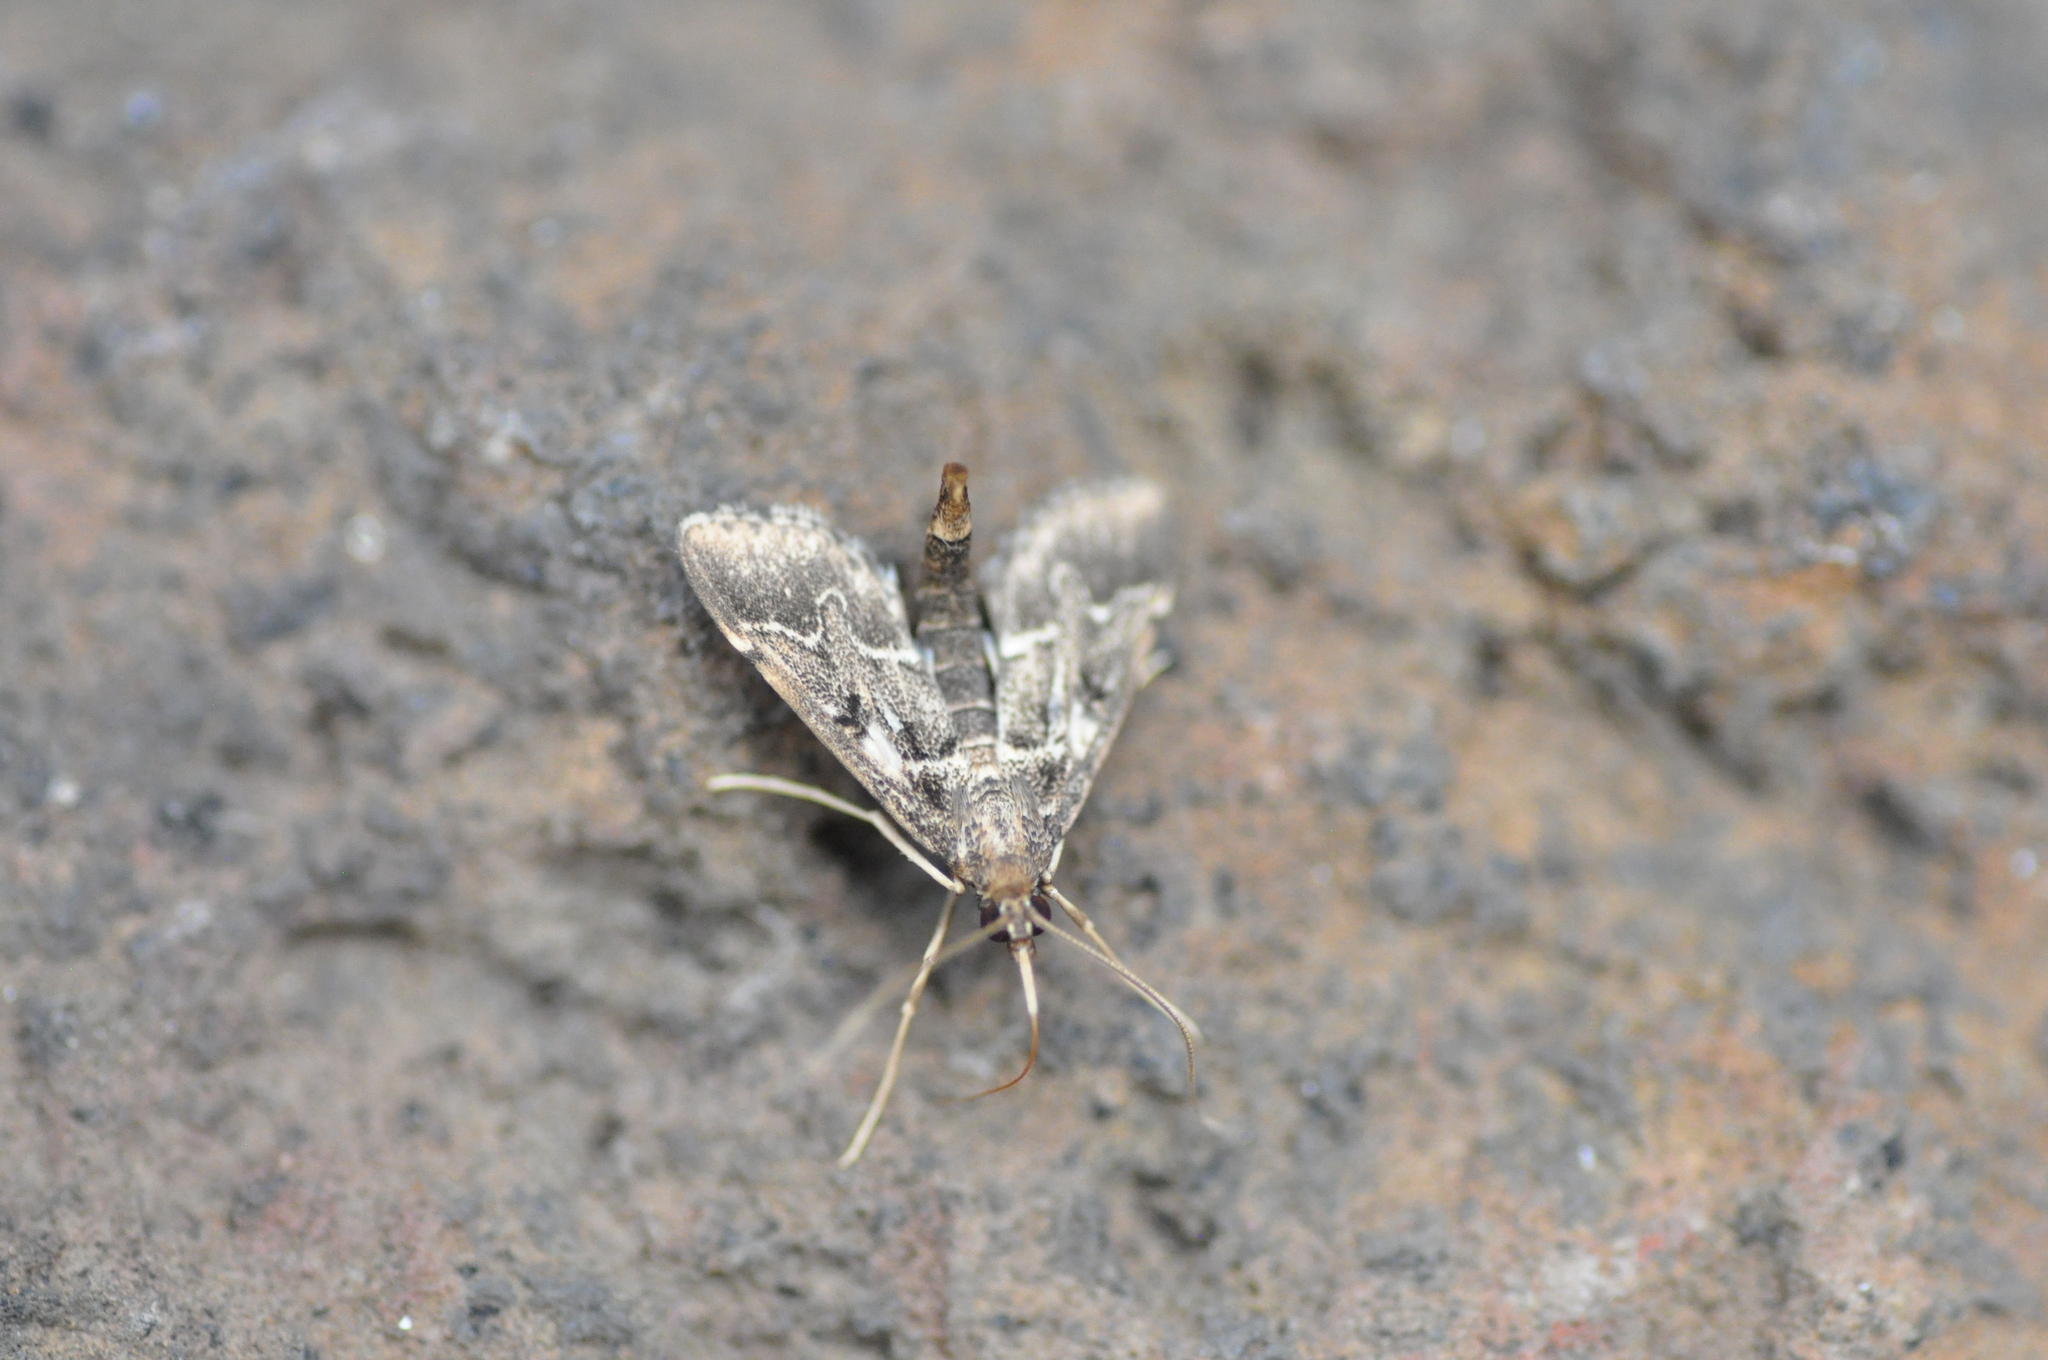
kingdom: Animalia
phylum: Arthropoda
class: Insecta
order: Lepidoptera
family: Crambidae
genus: Duponchelia
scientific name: Duponchelia fovealis
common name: Crambid moth
